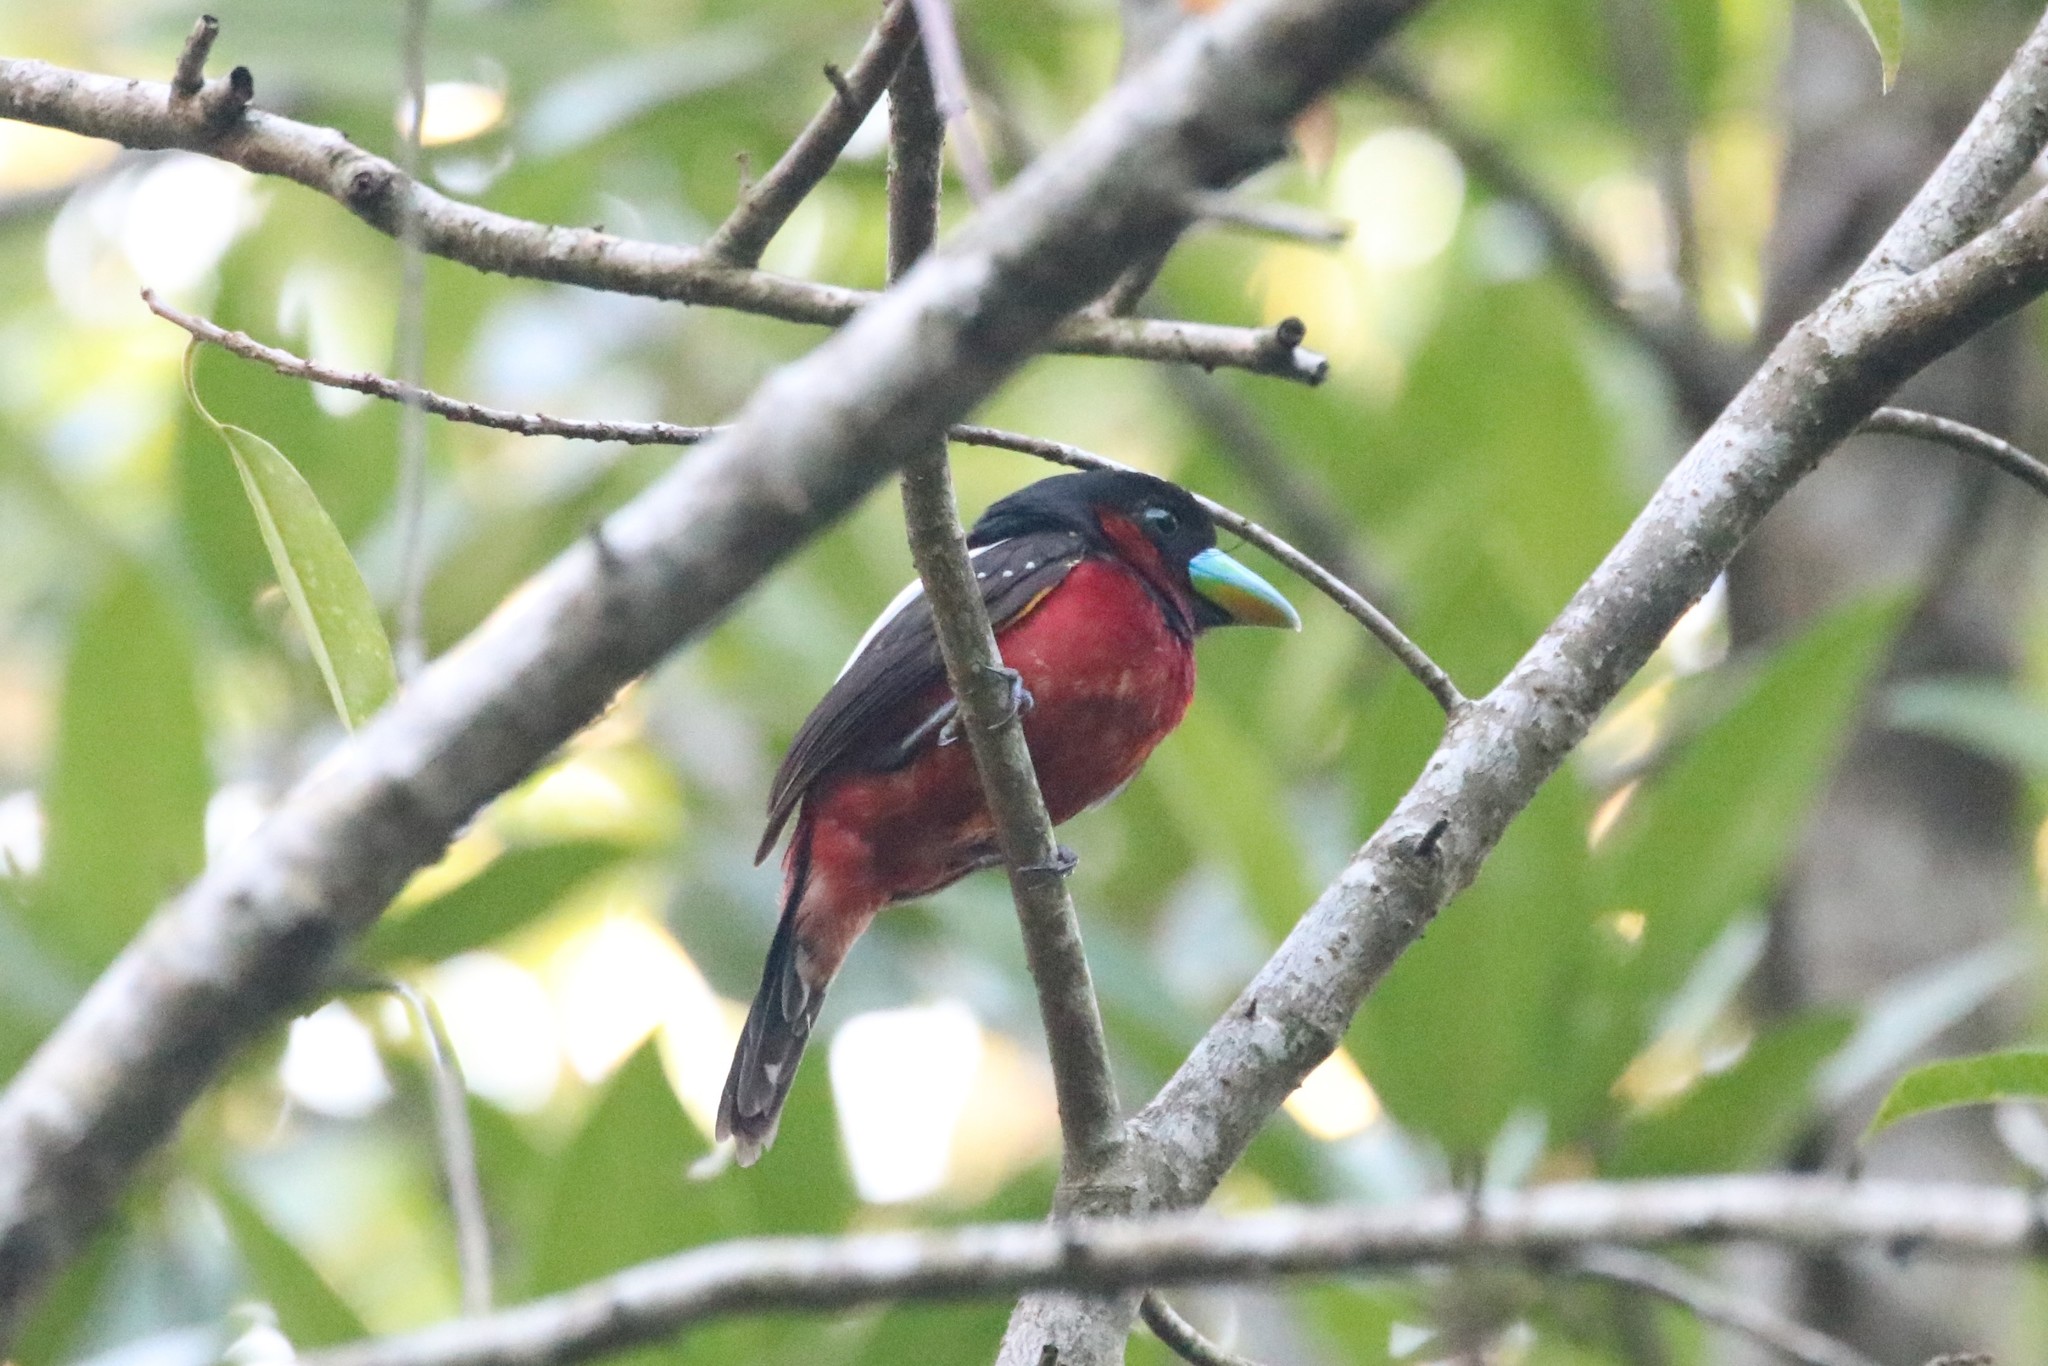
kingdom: Animalia
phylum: Chordata
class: Aves
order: Passeriformes
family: Eurylaimidae
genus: Cymbirhynchus
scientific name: Cymbirhynchus macrorhynchos
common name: Black-and-red broadbill
